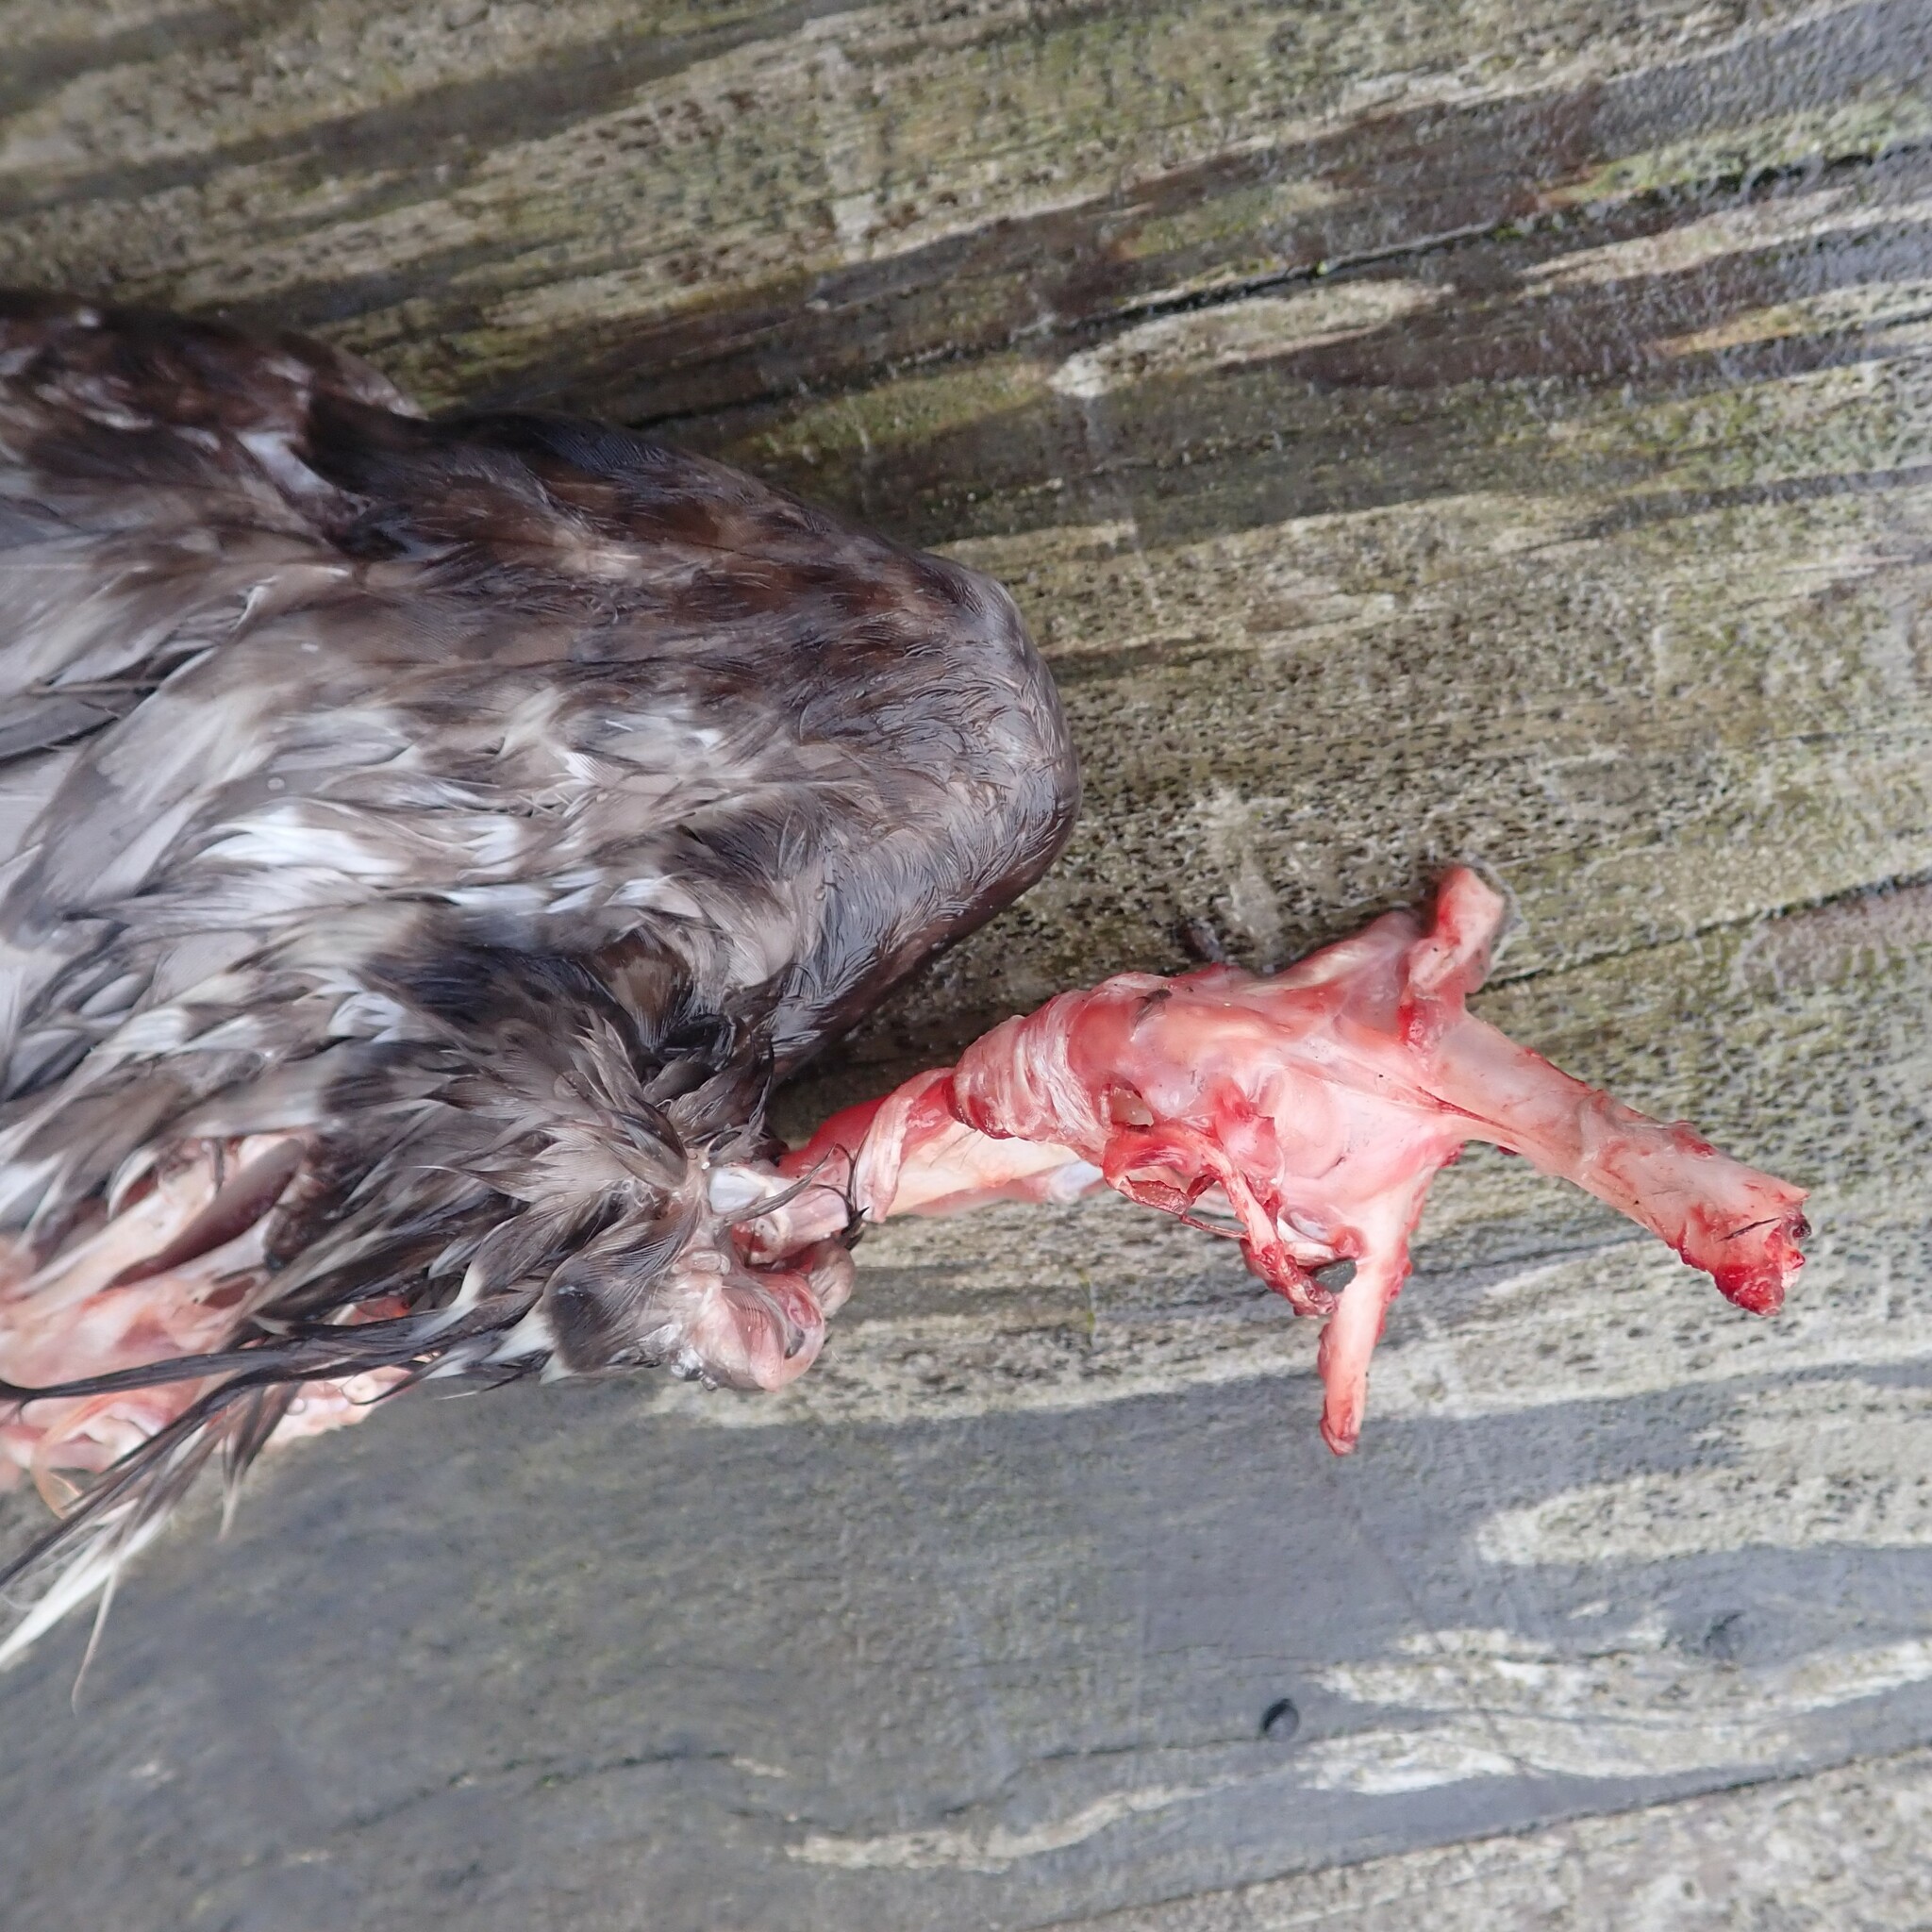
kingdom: Animalia
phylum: Chordata
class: Aves
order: Columbiformes
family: Columbidae
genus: Columba
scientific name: Columba livia
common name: Rock pigeon
